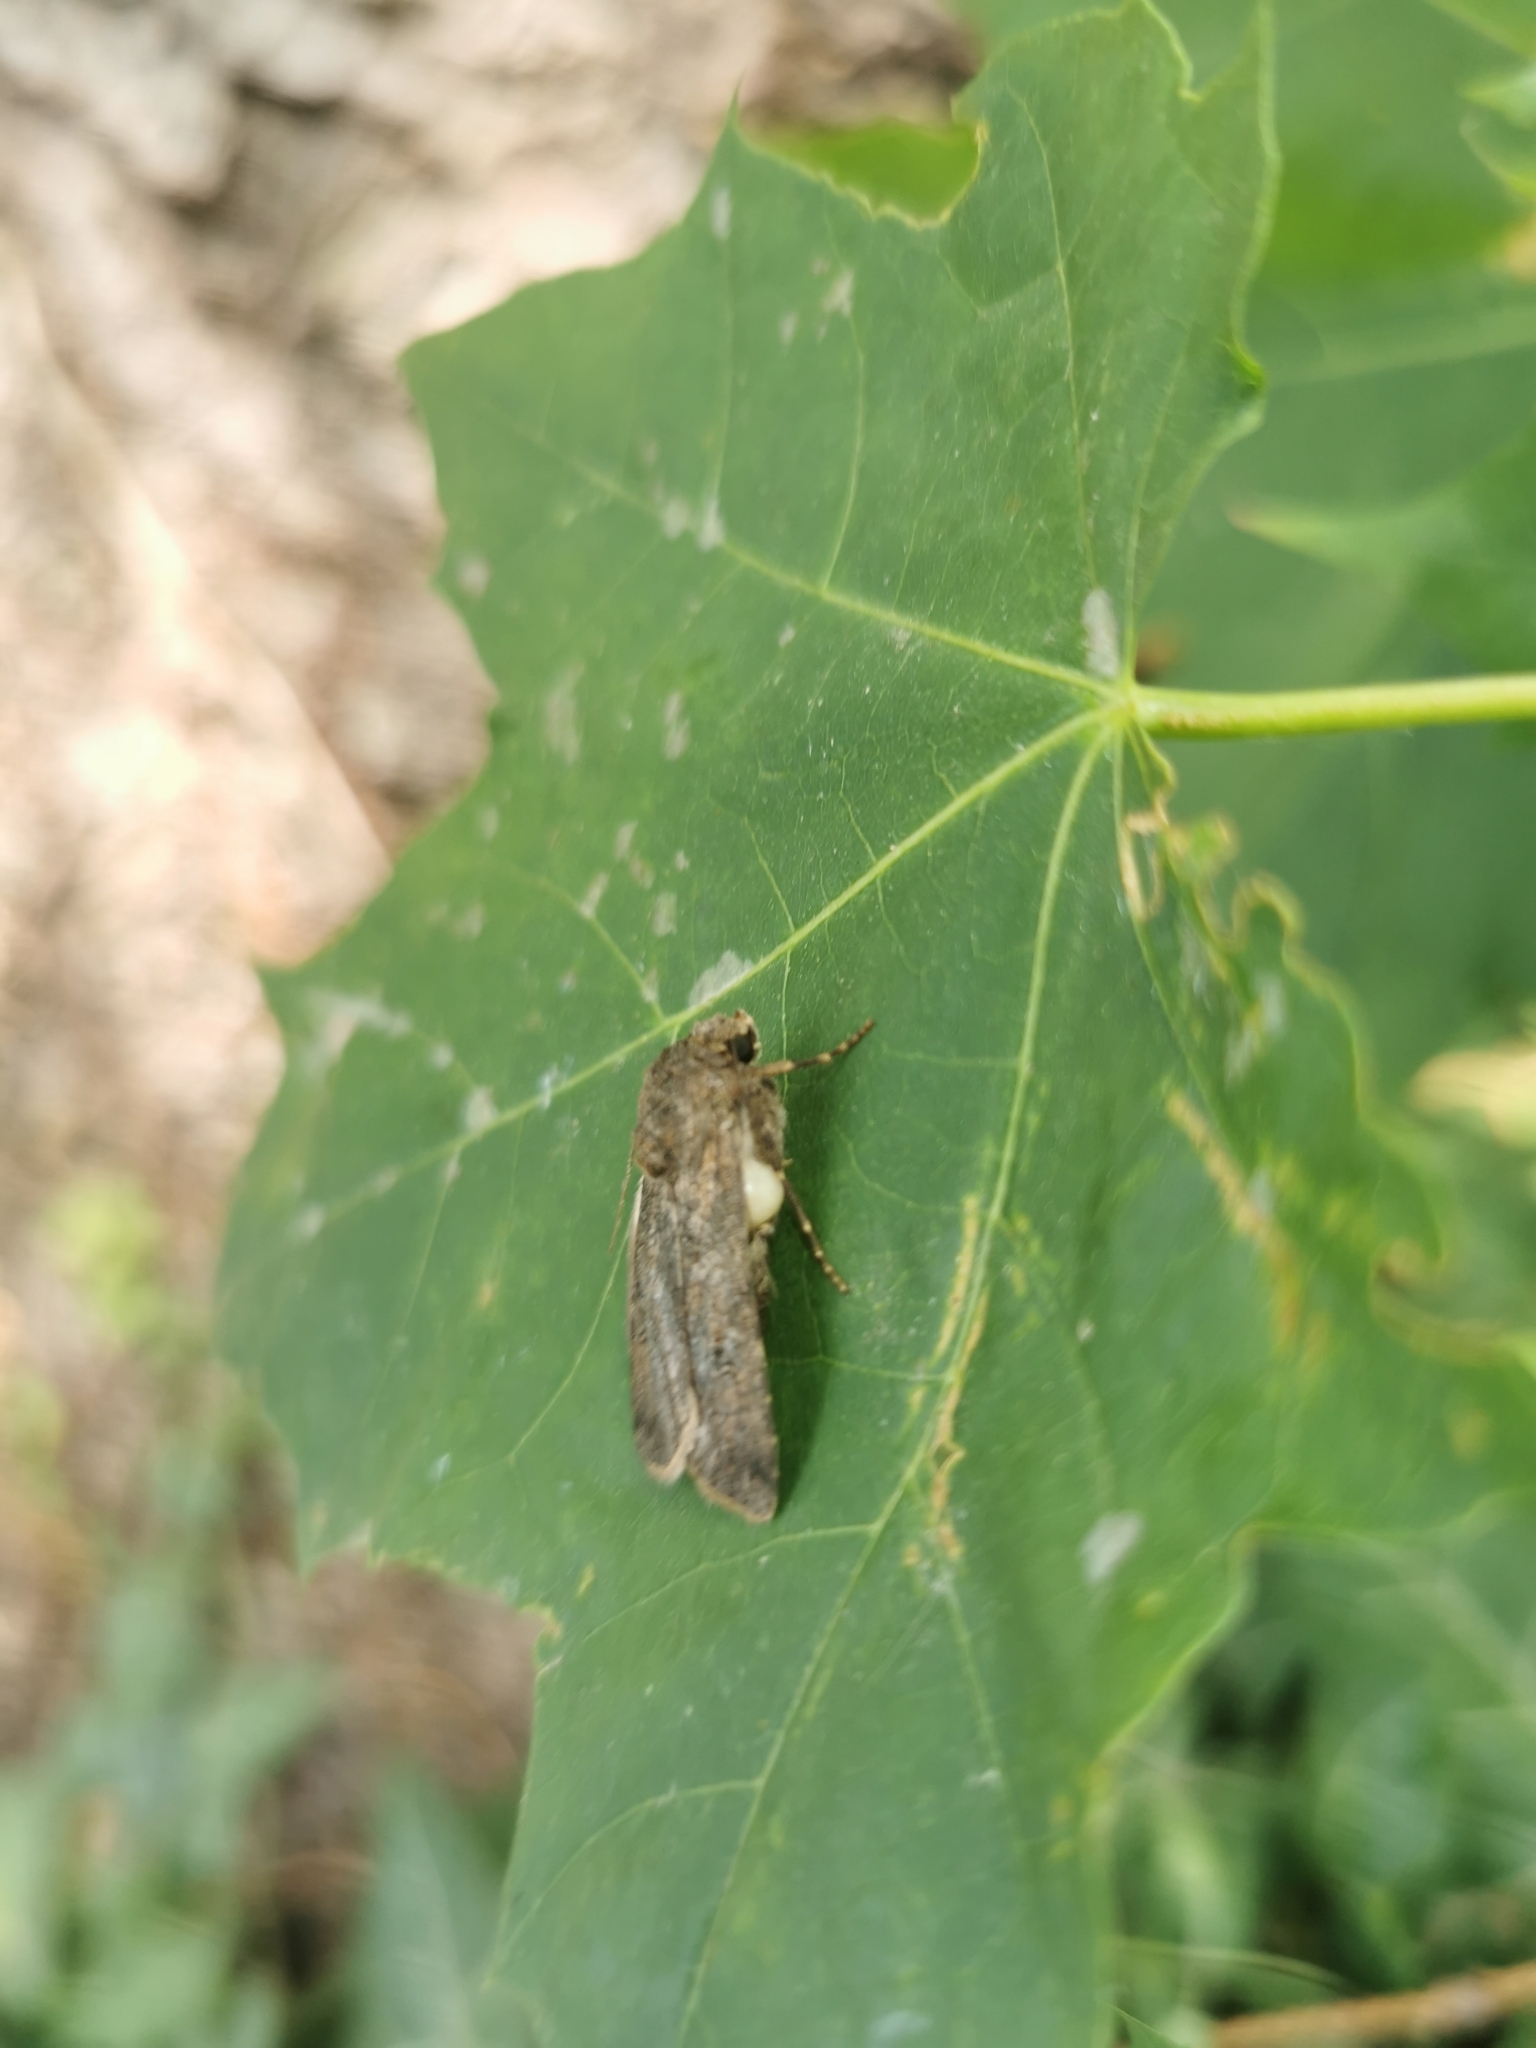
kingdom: Animalia
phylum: Arthropoda
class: Insecta
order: Lepidoptera
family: Noctuidae
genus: Agrotis
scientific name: Agrotis segetum
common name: Turnip moth
